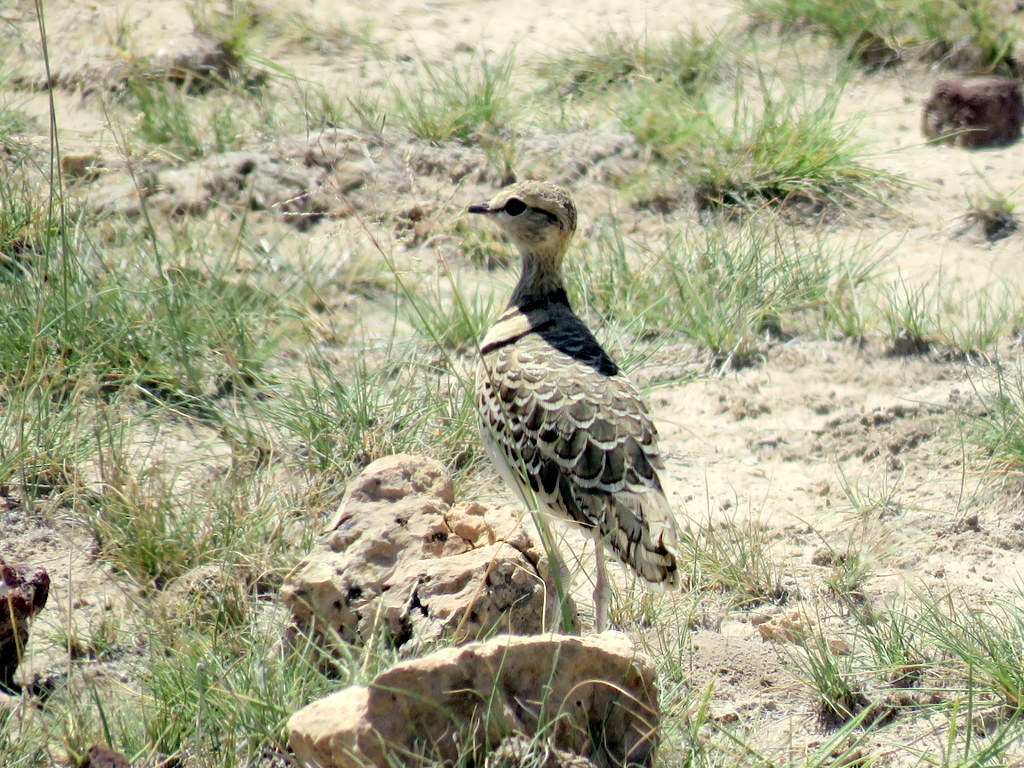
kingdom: Animalia
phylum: Chordata
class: Aves
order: Charadriiformes
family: Glareolidae
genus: Rhinoptilus
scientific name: Rhinoptilus africanus
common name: Double-banded courser
